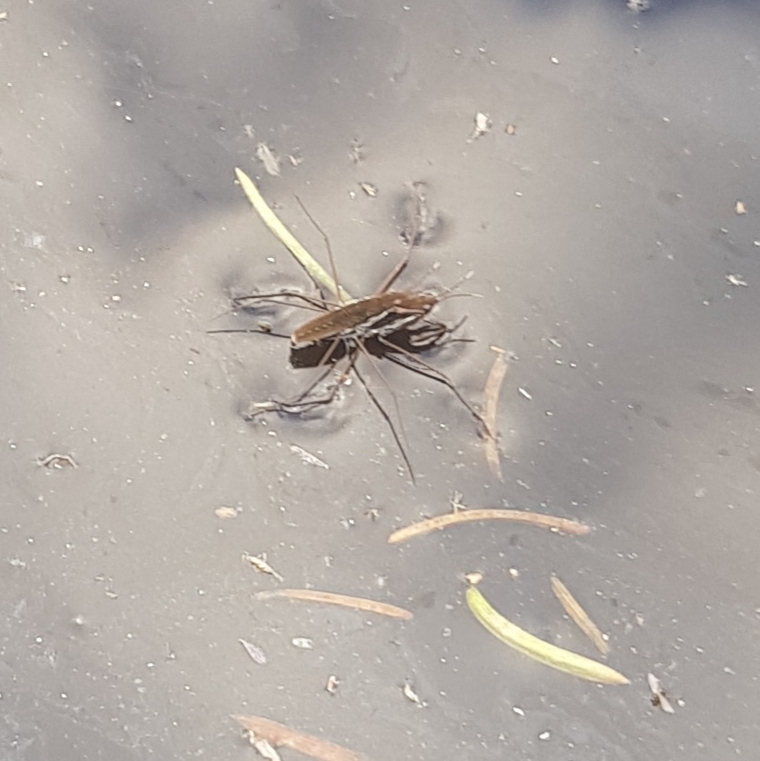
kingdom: Animalia
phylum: Arthropoda
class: Insecta
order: Hemiptera
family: Gerridae
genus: Gerris
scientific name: Gerris
